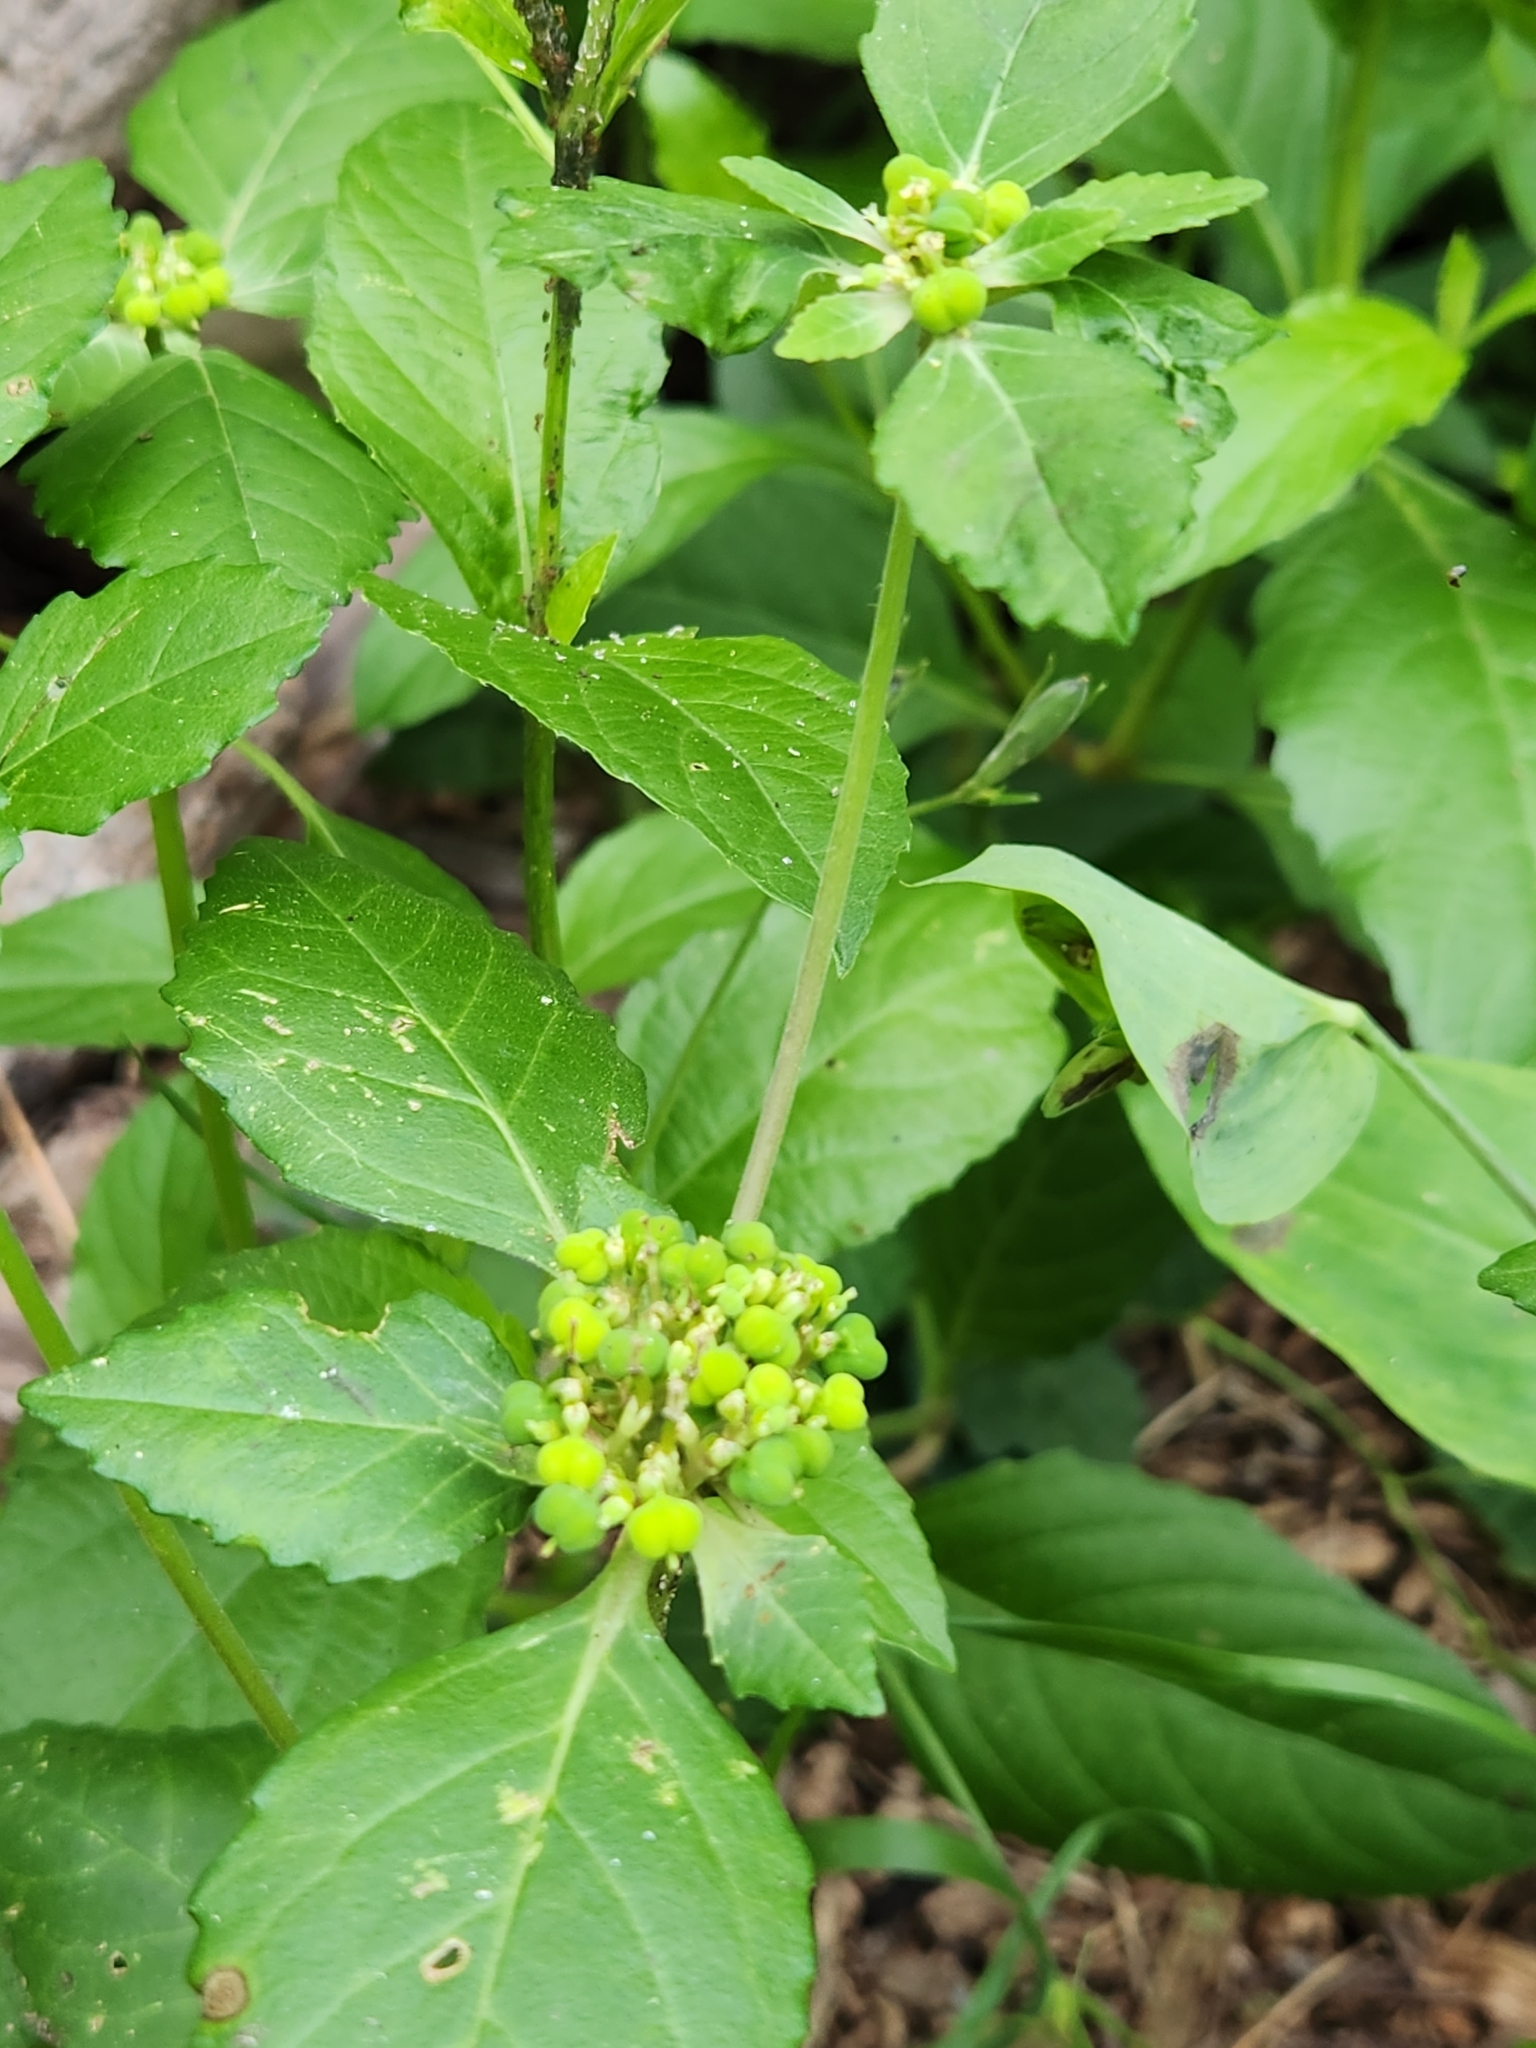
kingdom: Plantae
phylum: Tracheophyta
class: Magnoliopsida
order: Malpighiales
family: Euphorbiaceae
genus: Euphorbia
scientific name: Euphorbia dentata
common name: Dentate spurge
